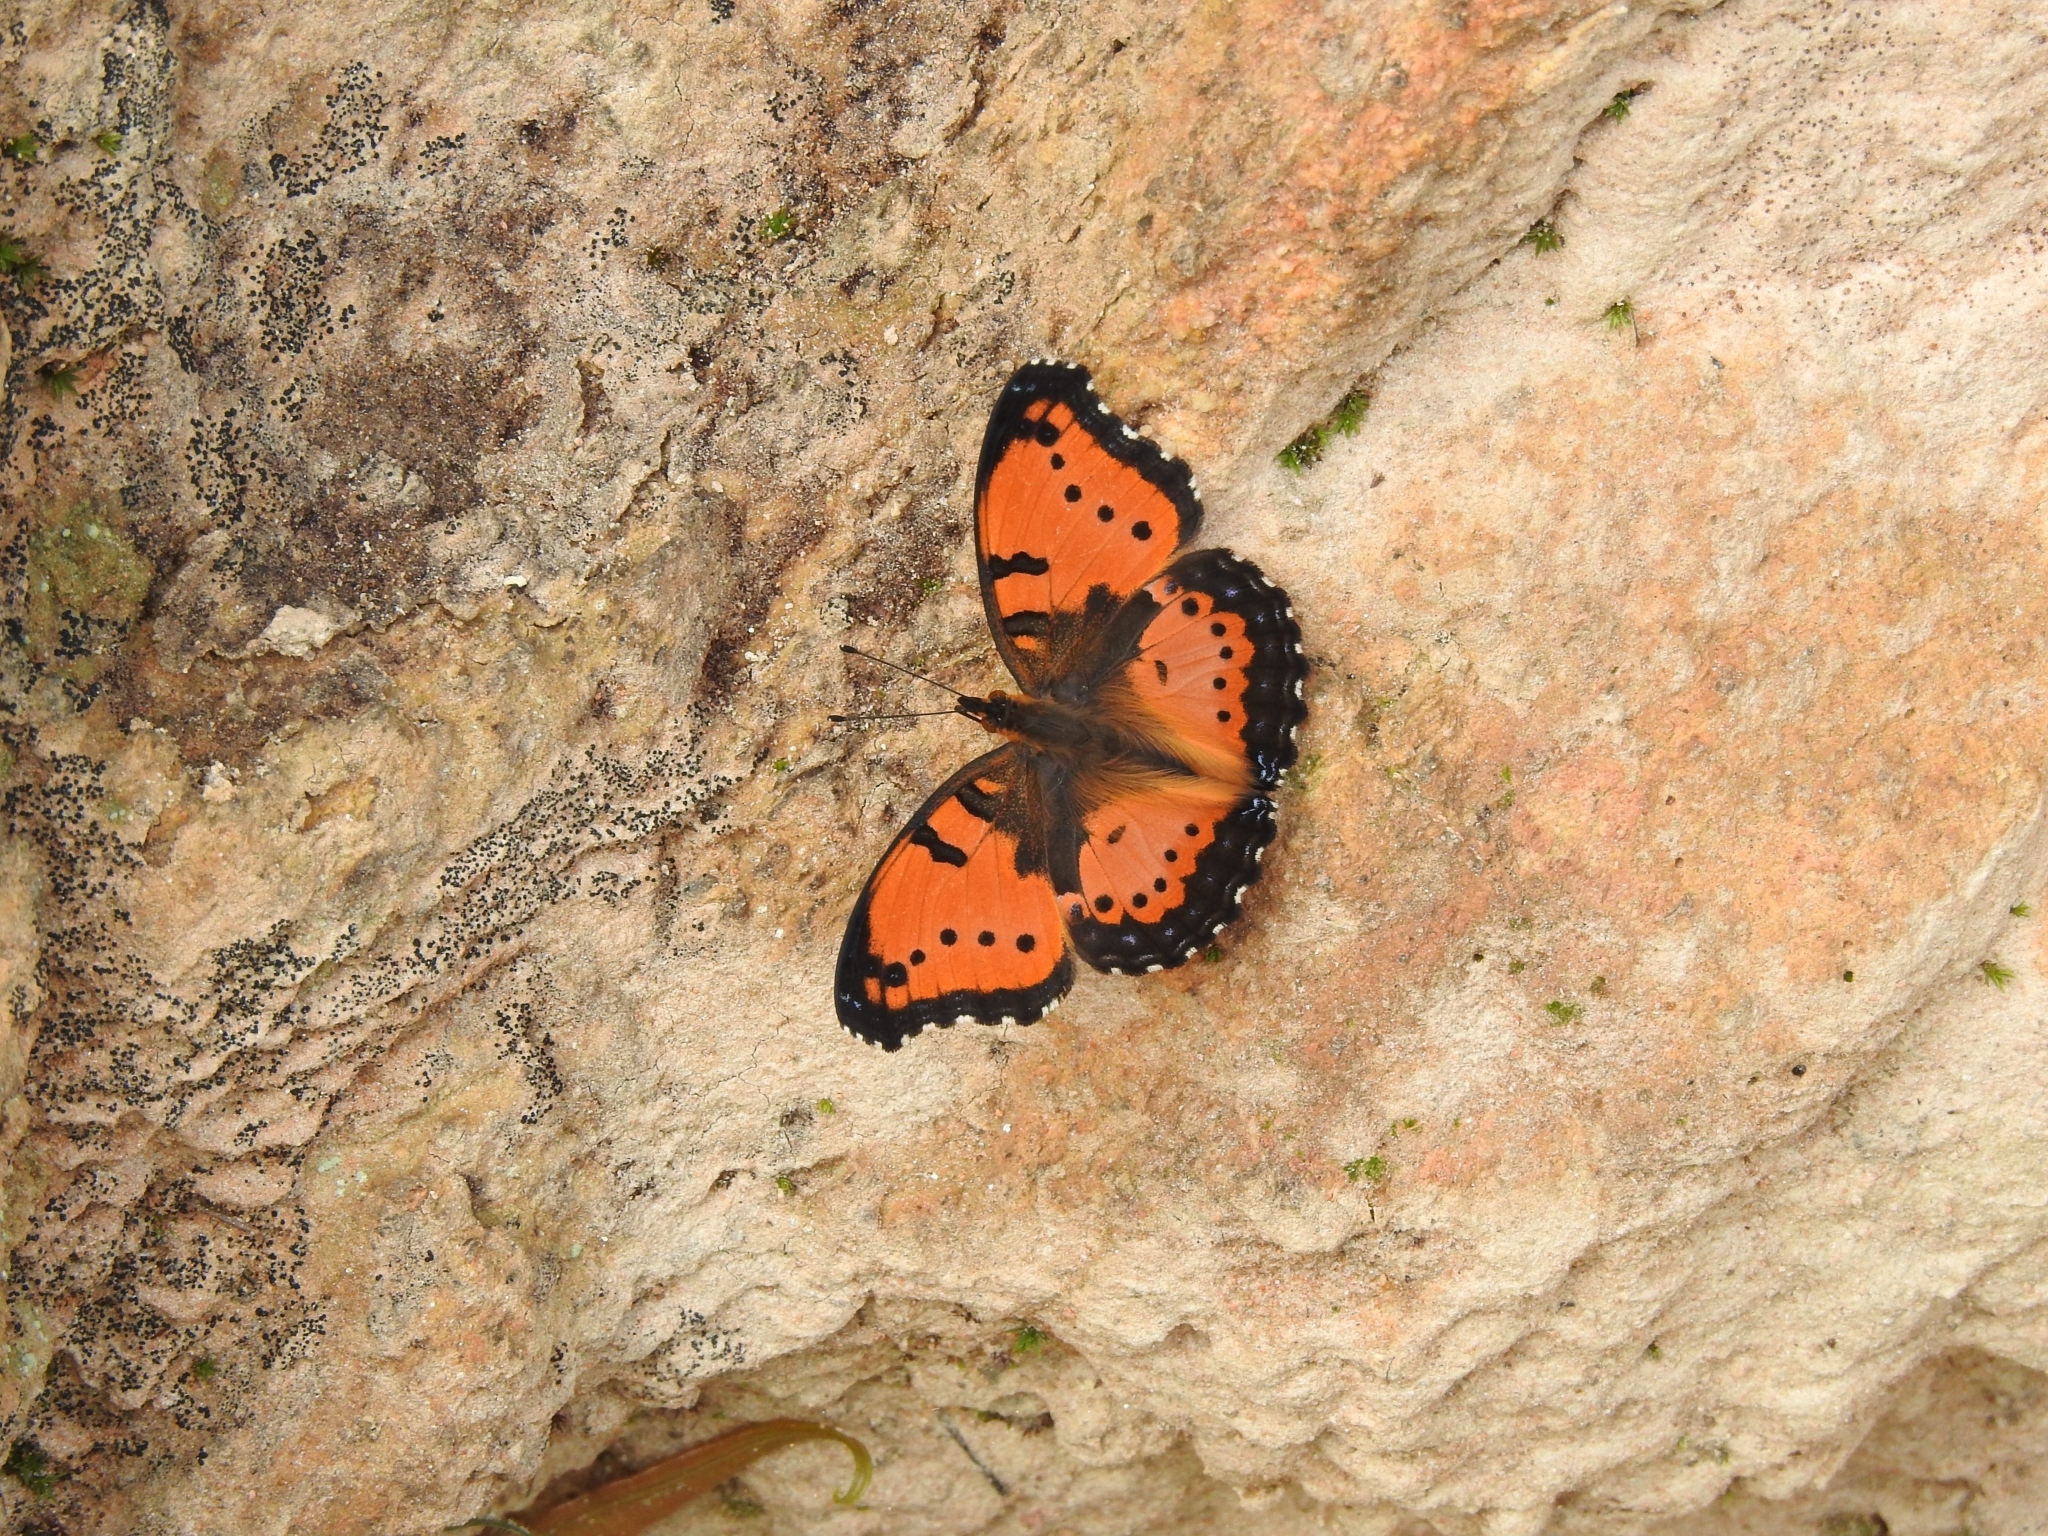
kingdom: Animalia
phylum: Arthropoda
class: Insecta
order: Lepidoptera
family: Nymphalidae
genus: Precis
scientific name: Precis octavia
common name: Gaudy commodore
